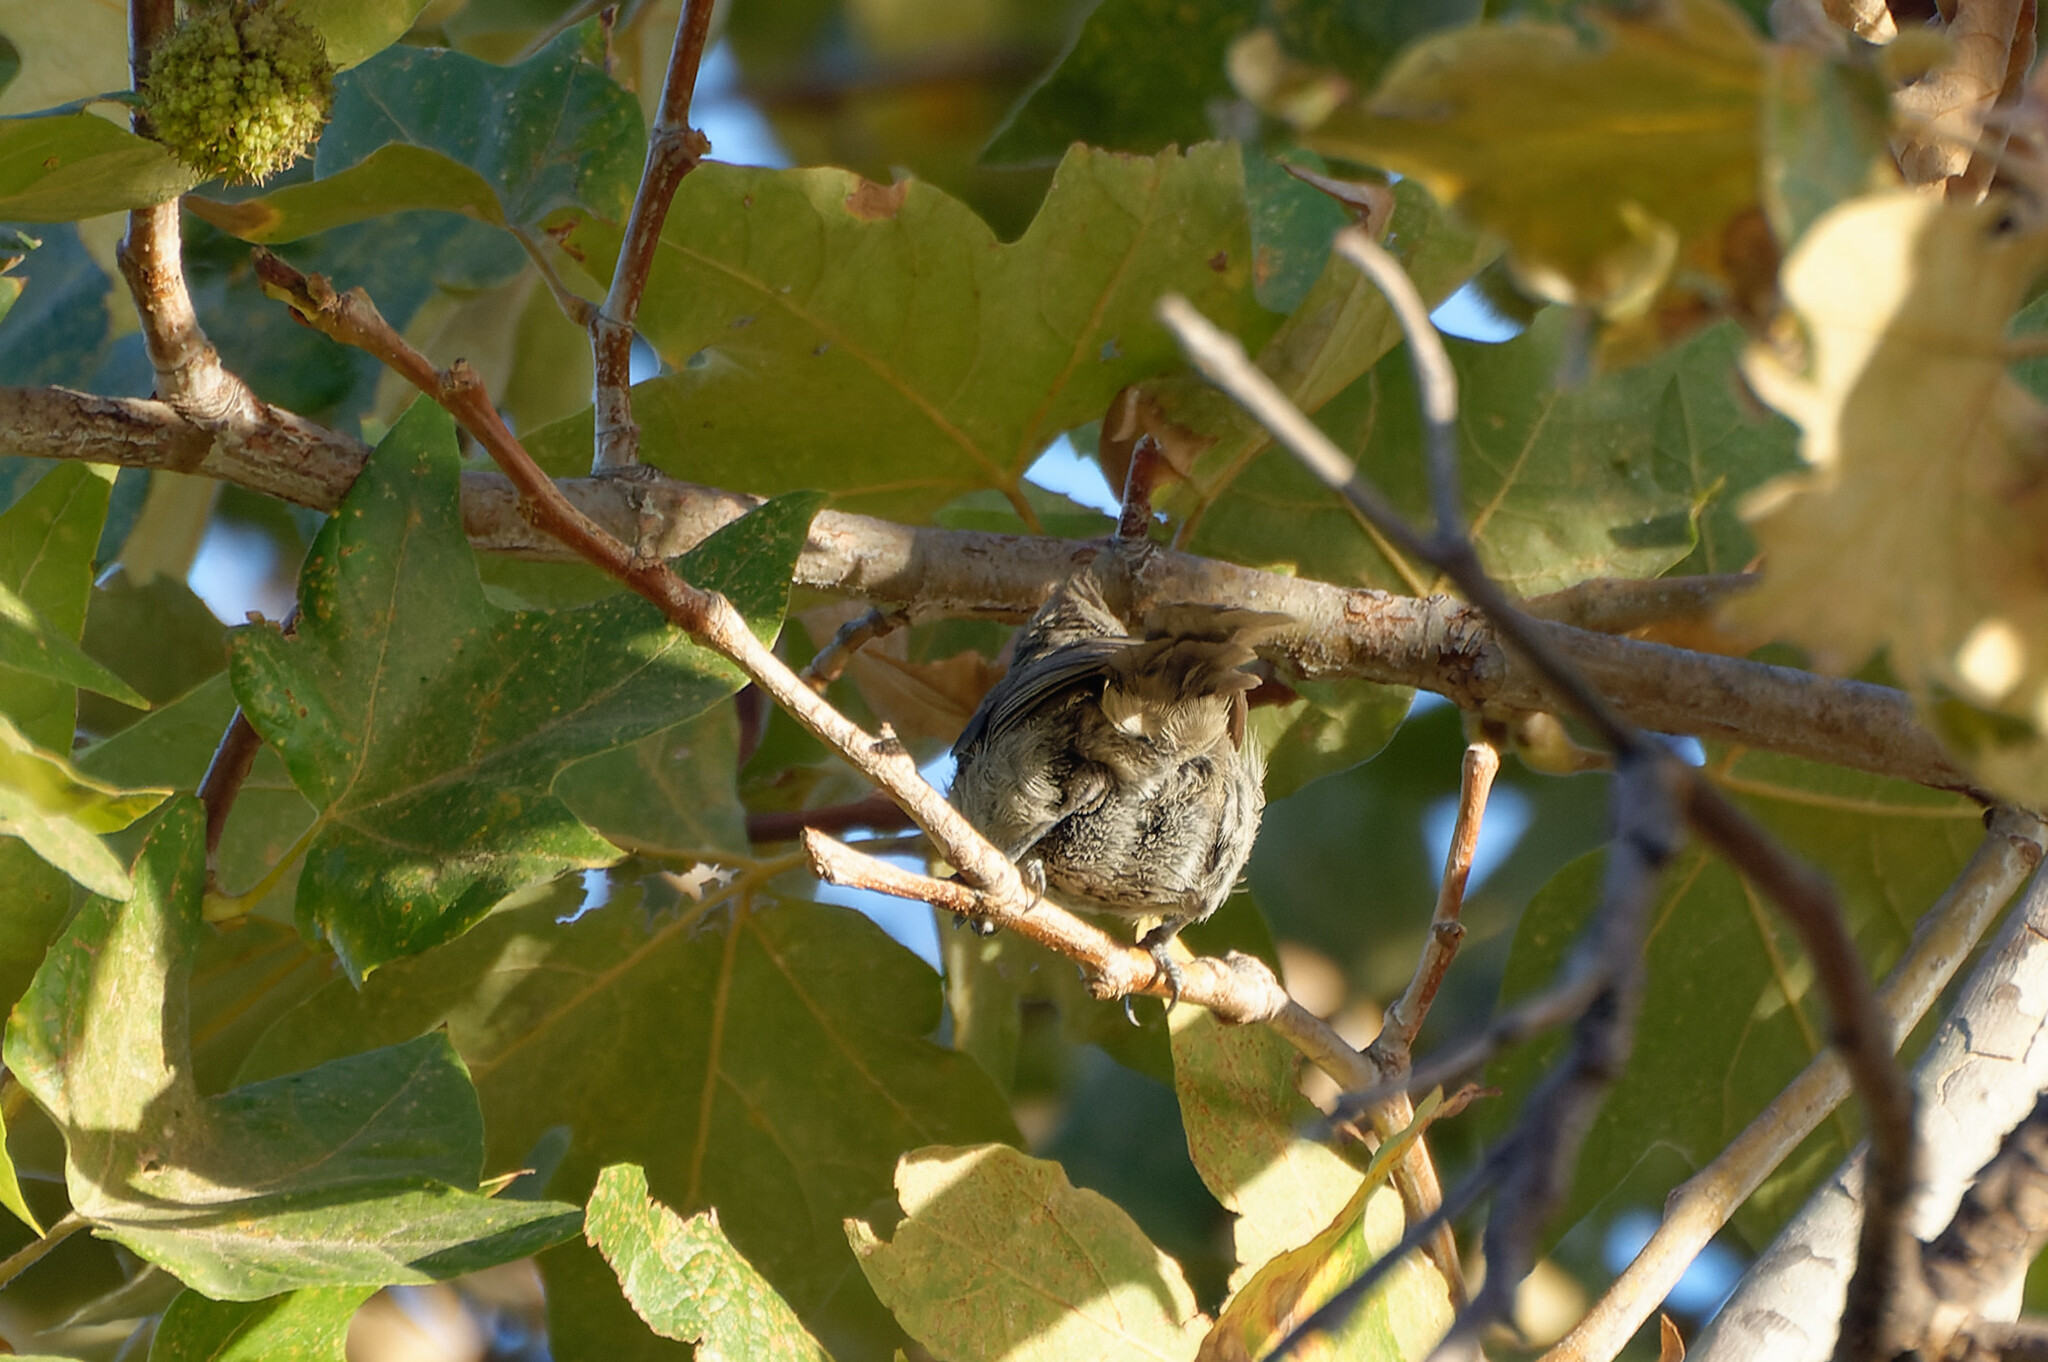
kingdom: Animalia
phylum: Chordata
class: Aves
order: Passeriformes
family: Paridae
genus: Baeolophus
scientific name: Baeolophus inornatus
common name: Oak titmouse
